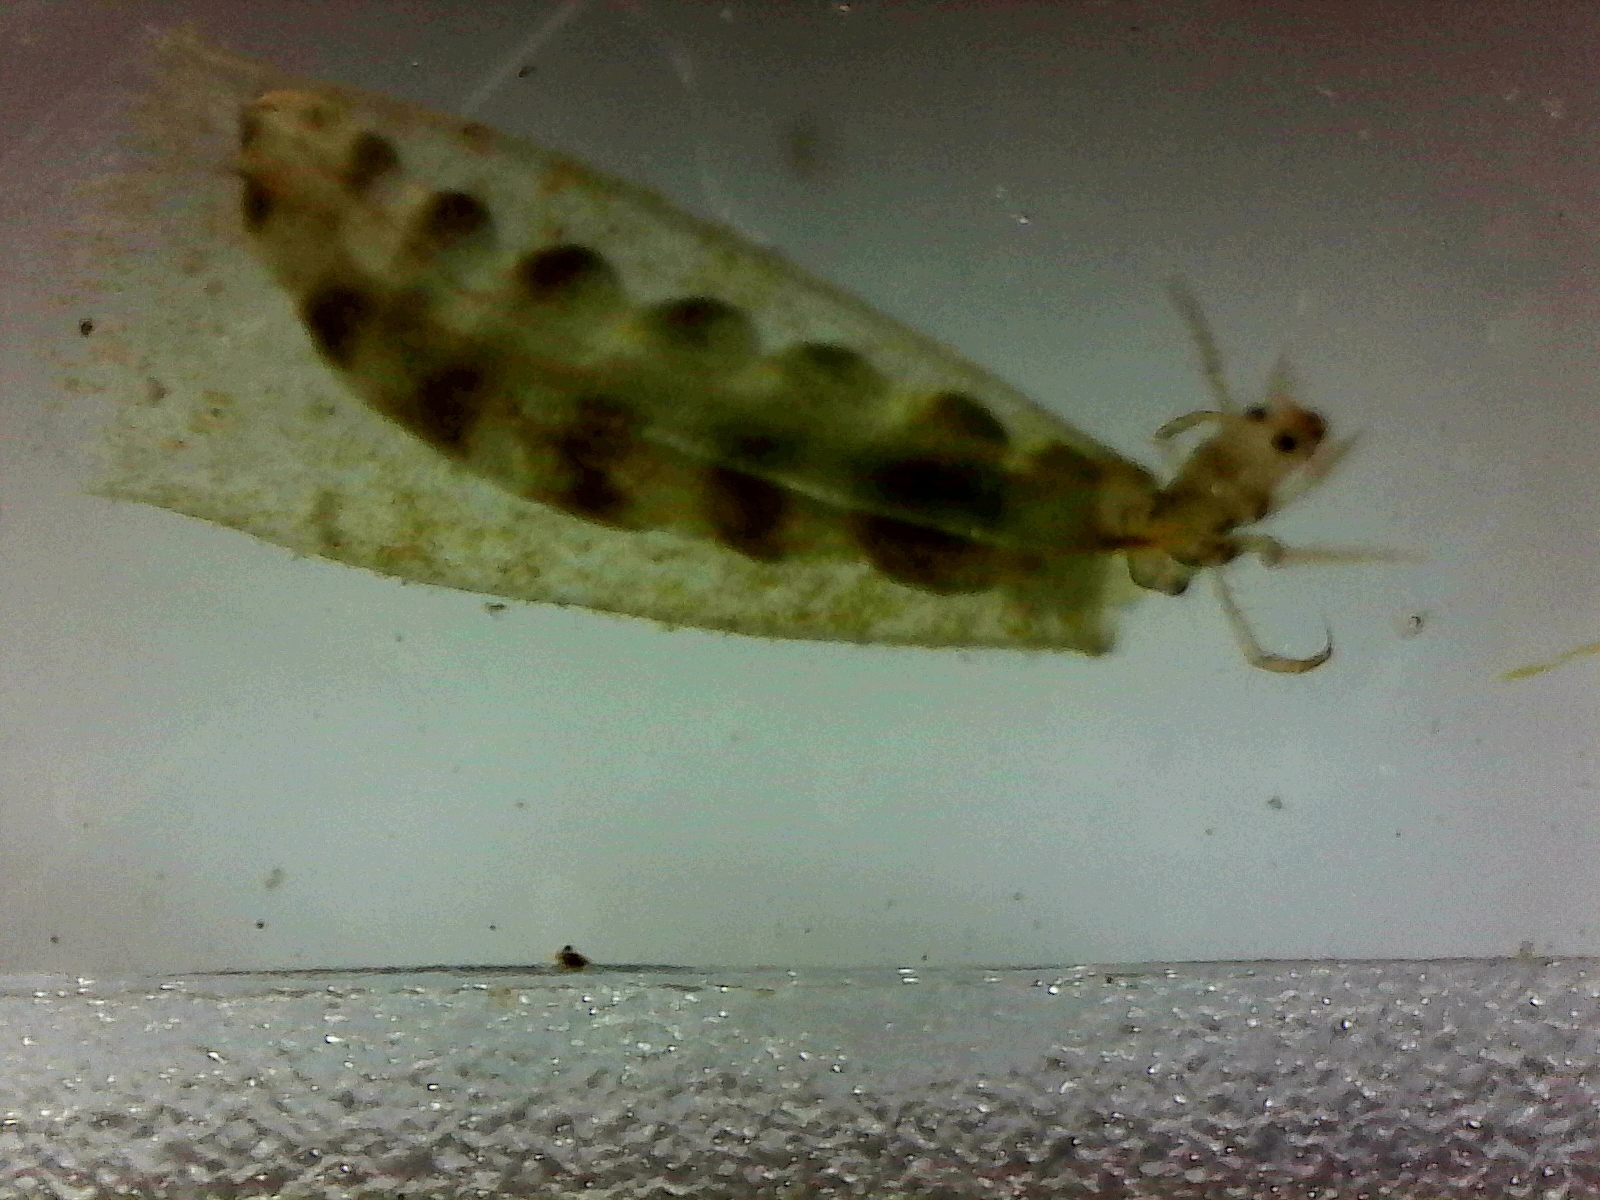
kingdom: Animalia
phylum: Arthropoda
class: Insecta
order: Trichoptera
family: Hydroptilidae
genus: Oxyethira
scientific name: Oxyethira albiceps
